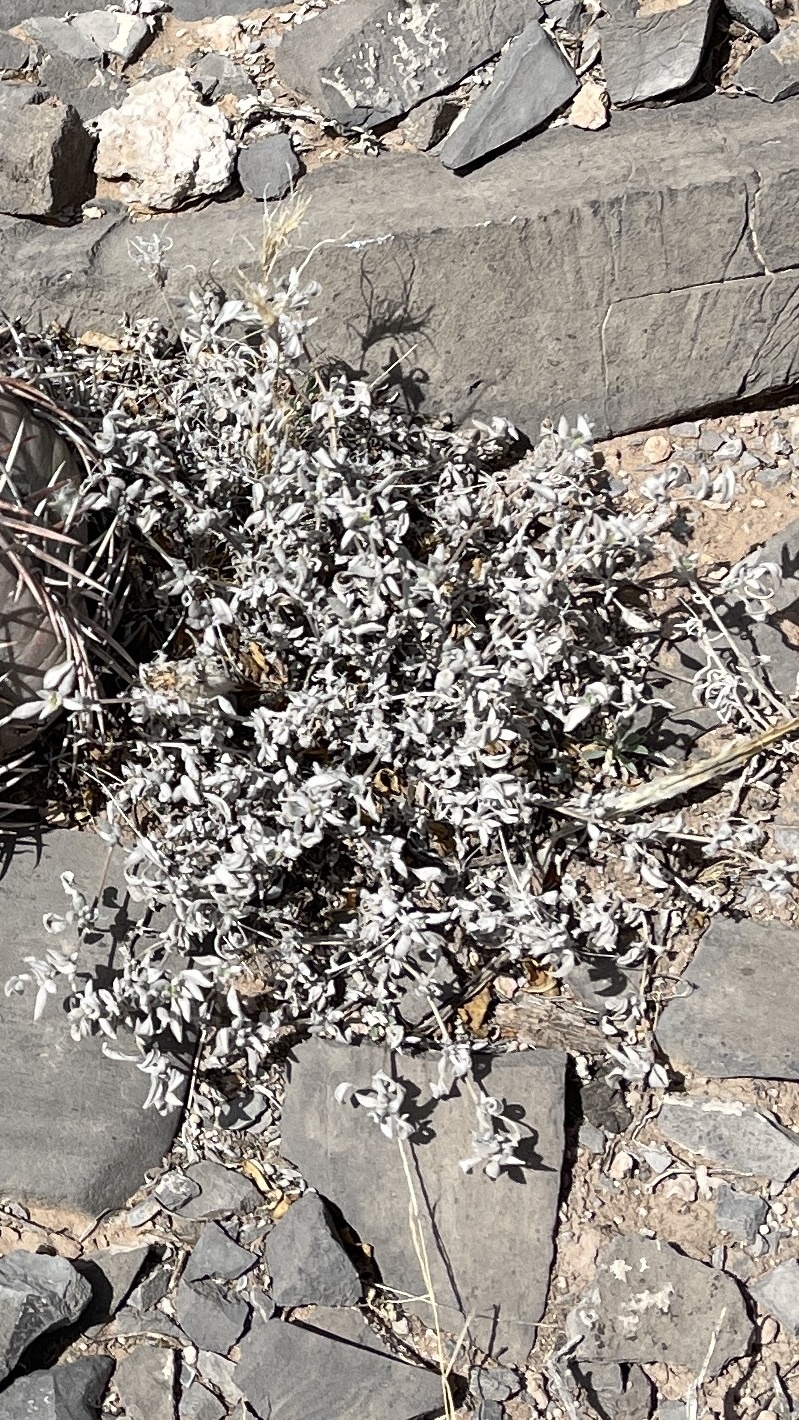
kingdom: Plantae
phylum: Tracheophyta
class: Magnoliopsida
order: Boraginales
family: Ehretiaceae
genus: Tiquilia
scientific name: Tiquilia canescens
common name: Hairy tiquilia
